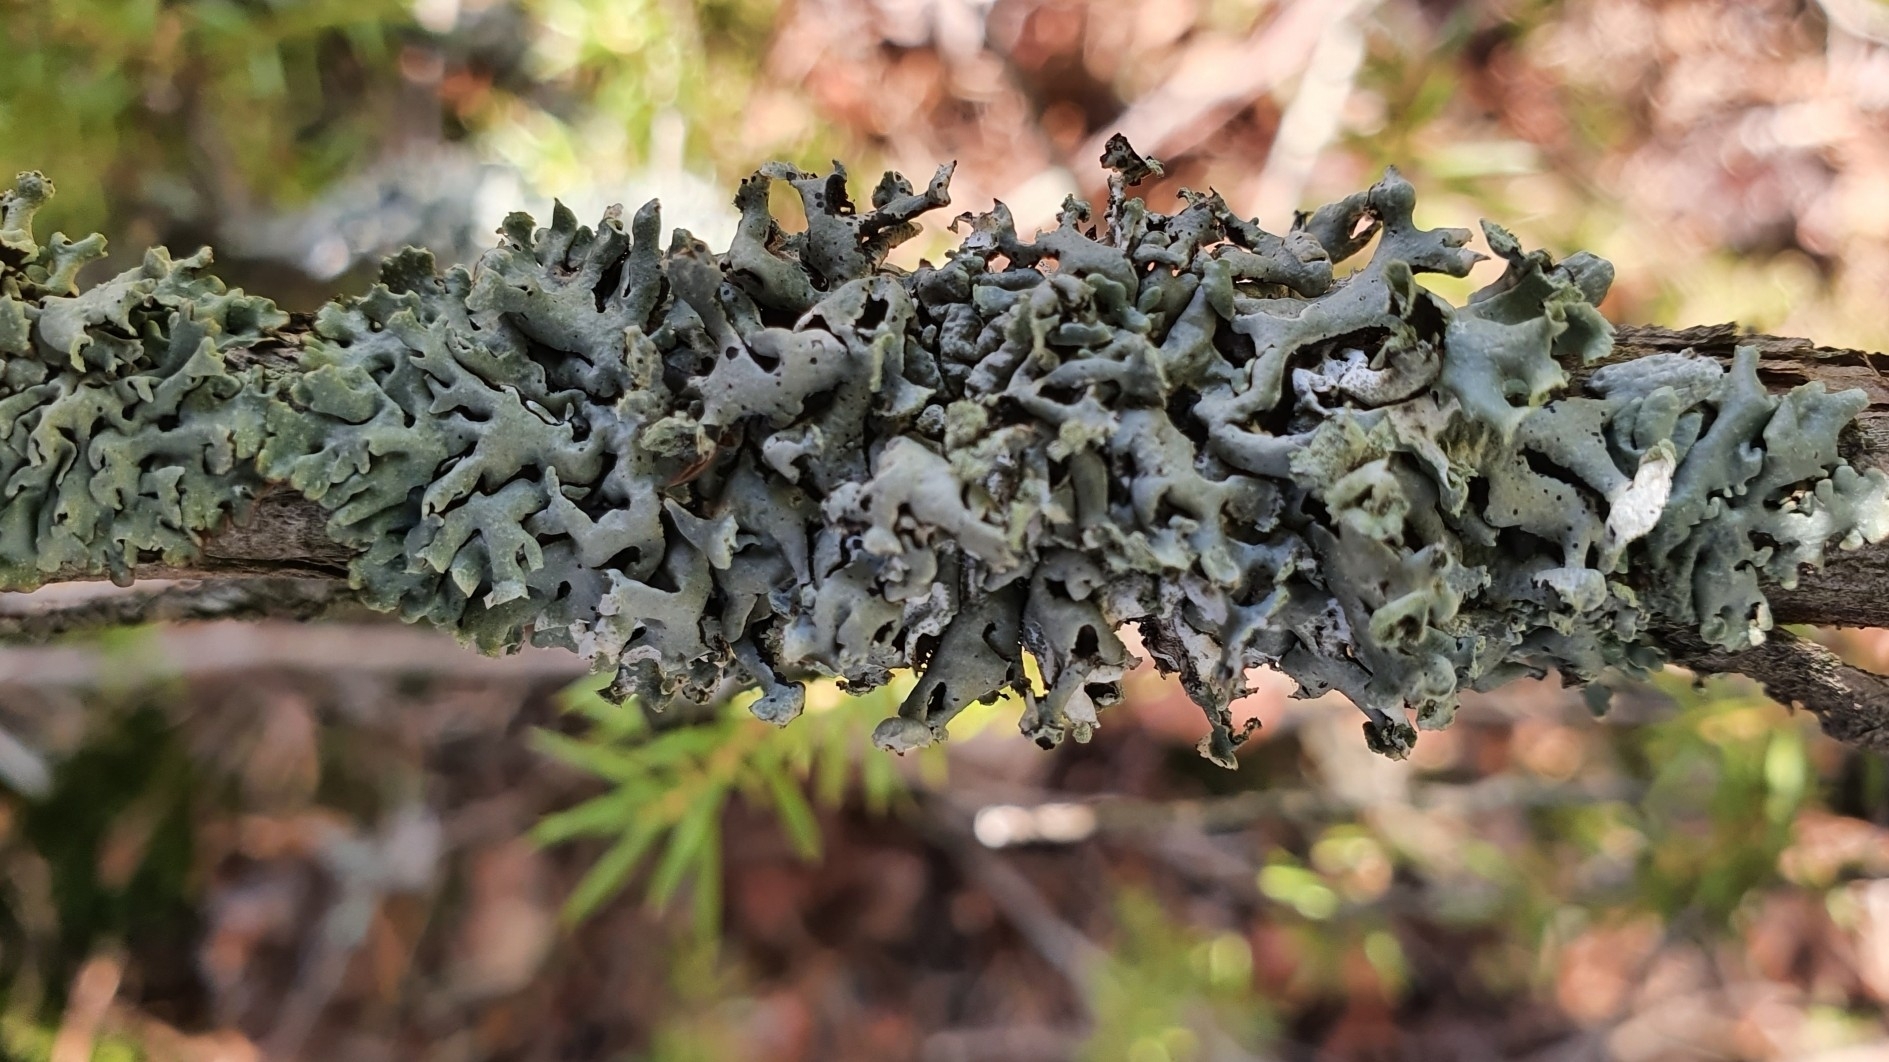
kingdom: Fungi
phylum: Ascomycota
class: Lecanoromycetes
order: Lecanorales
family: Parmeliaceae
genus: Hypogymnia
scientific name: Hypogymnia physodes
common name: Dark crottle
